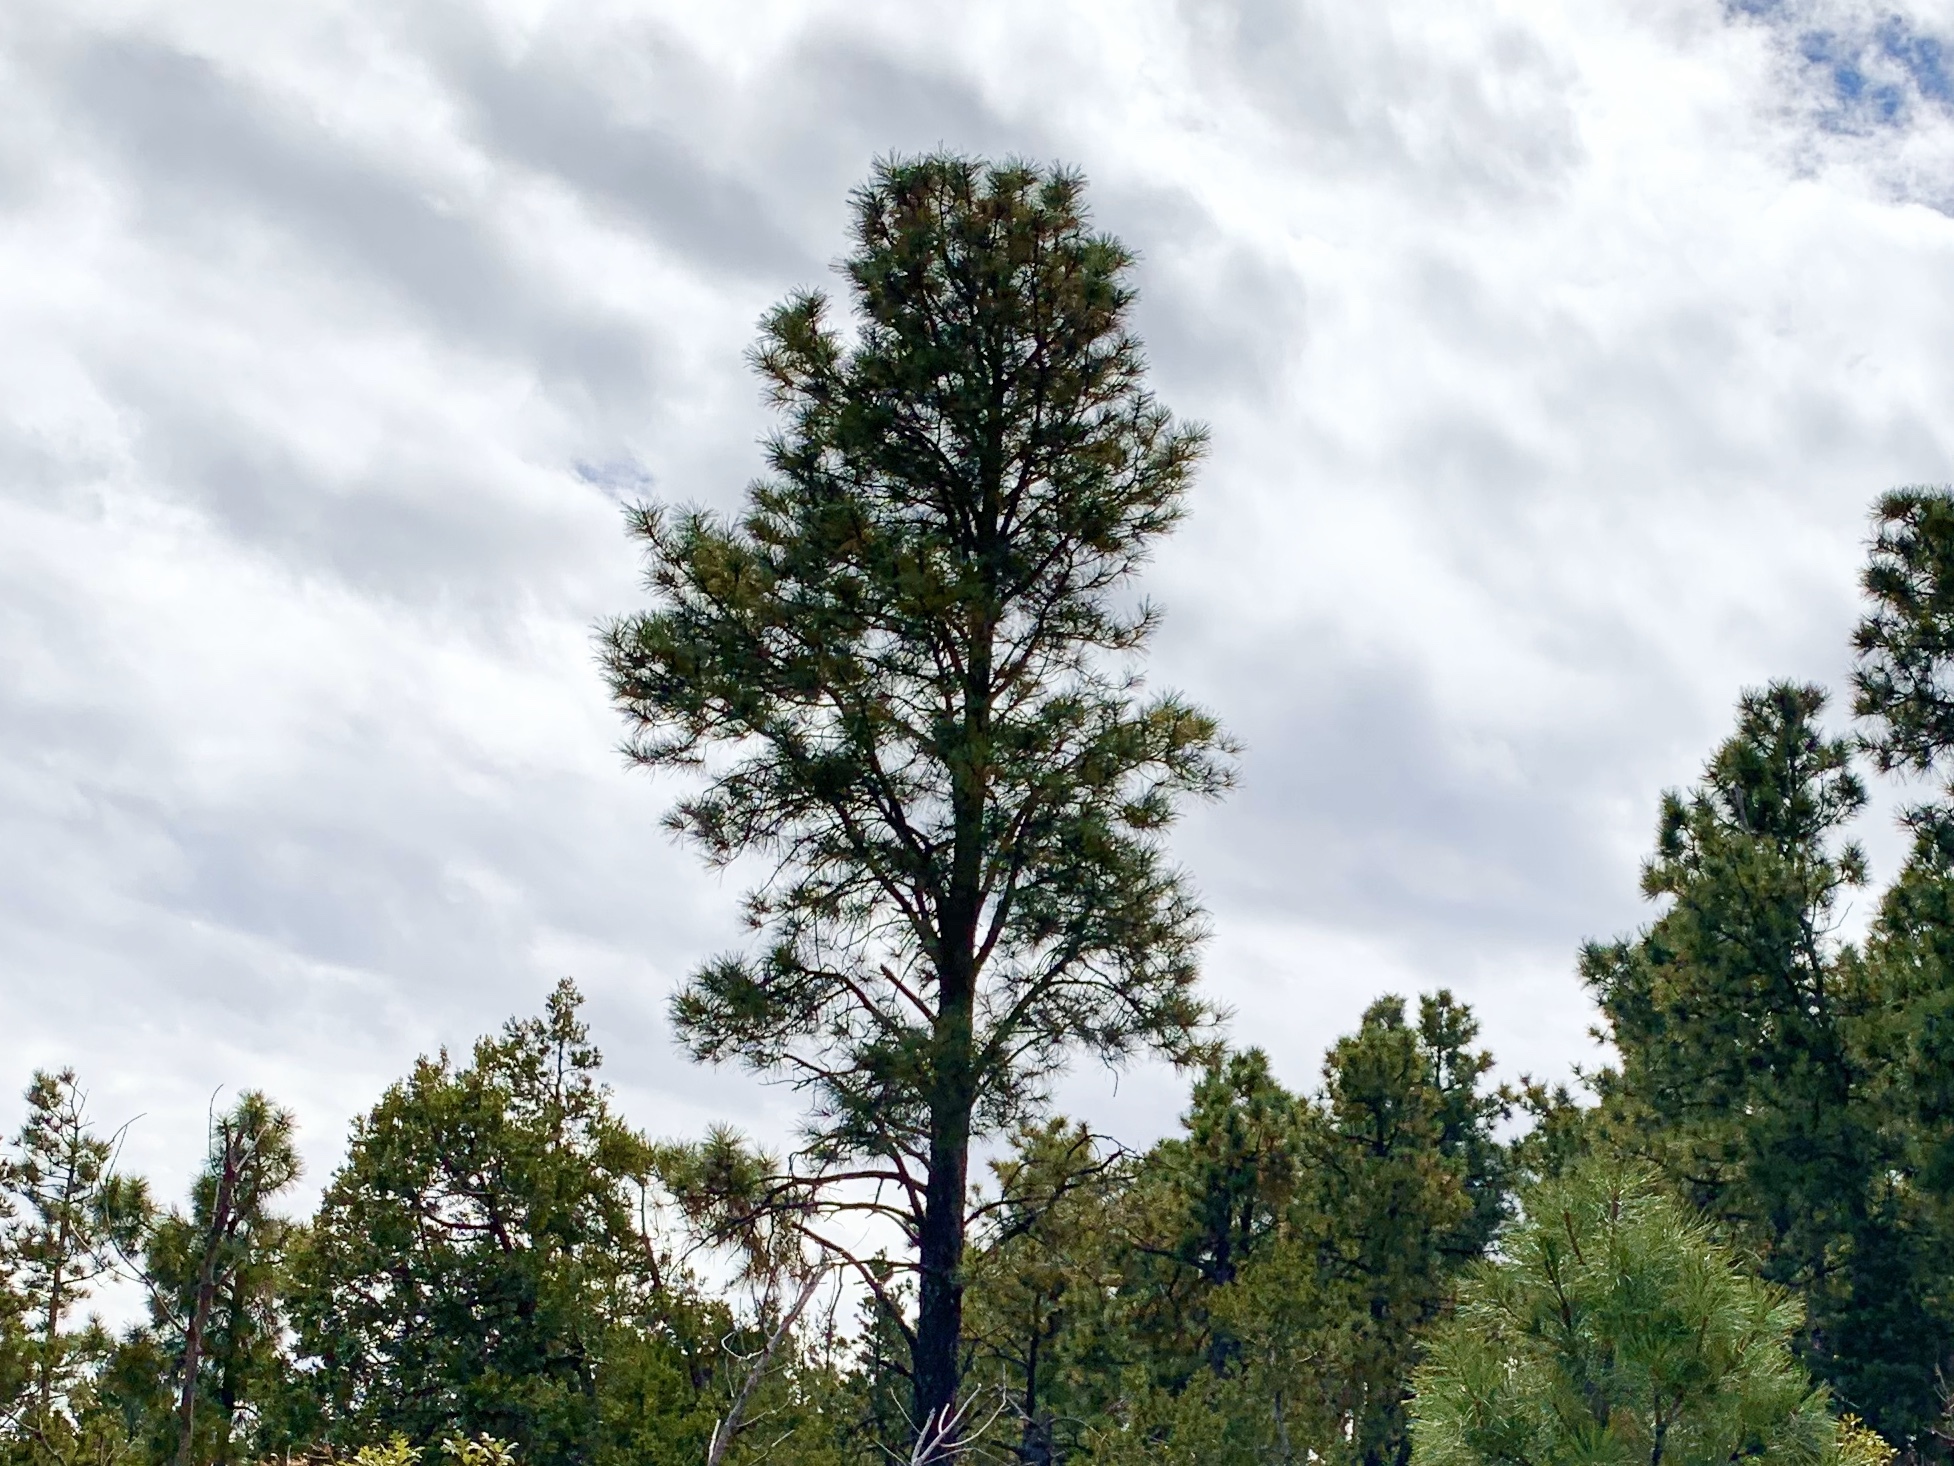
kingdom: Plantae
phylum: Tracheophyta
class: Pinopsida
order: Pinales
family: Pinaceae
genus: Pinus
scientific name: Pinus ponderosa
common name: Western yellow-pine
